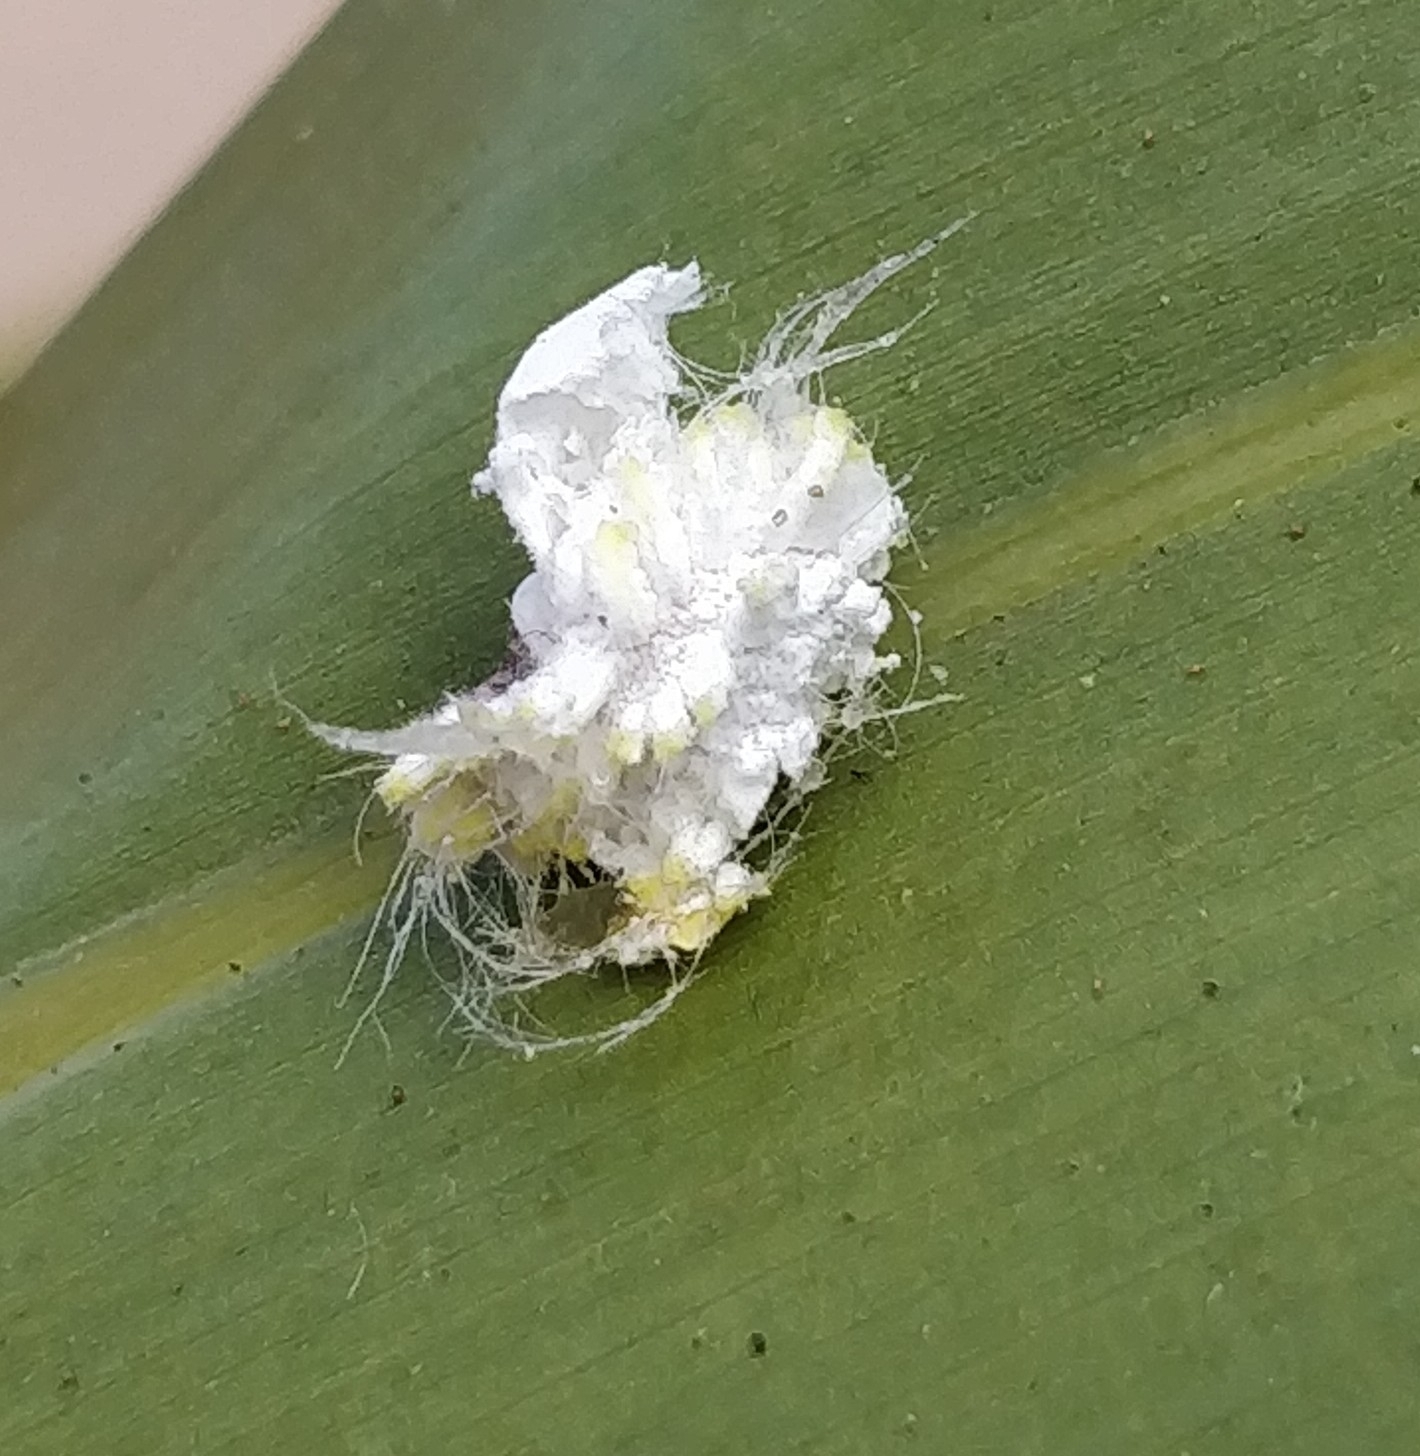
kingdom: Animalia
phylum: Arthropoda
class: Insecta
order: Hemiptera
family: Margarodidae
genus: Icerya
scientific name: Icerya seychellarum
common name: Iceplant scale
